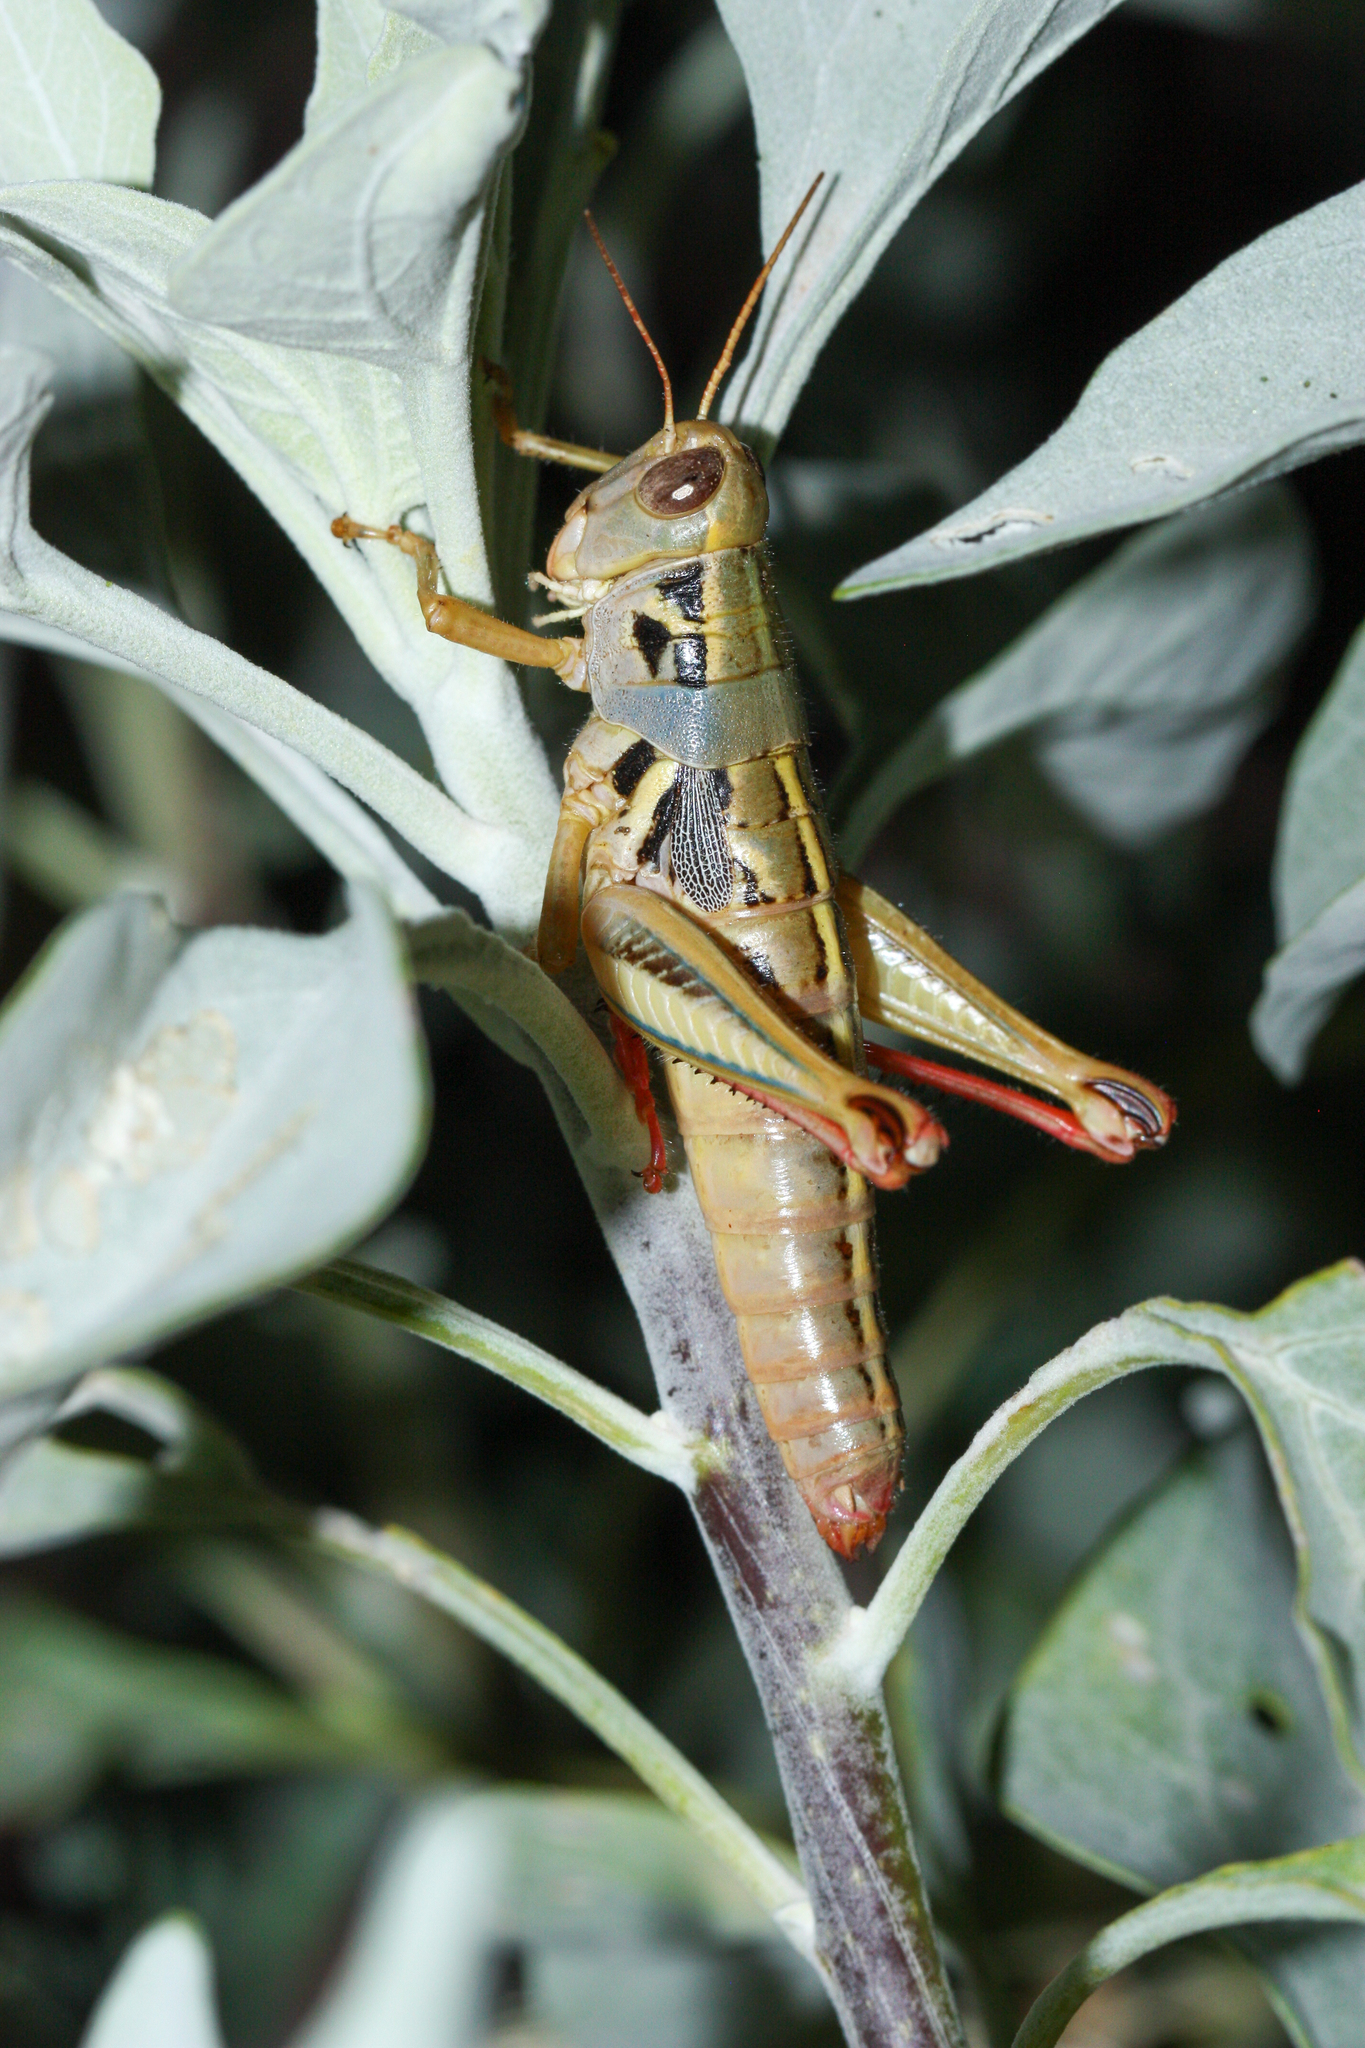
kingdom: Animalia
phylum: Arthropoda
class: Insecta
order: Orthoptera
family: Acrididae
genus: Barytettix
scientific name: Barytettix humphreysii
